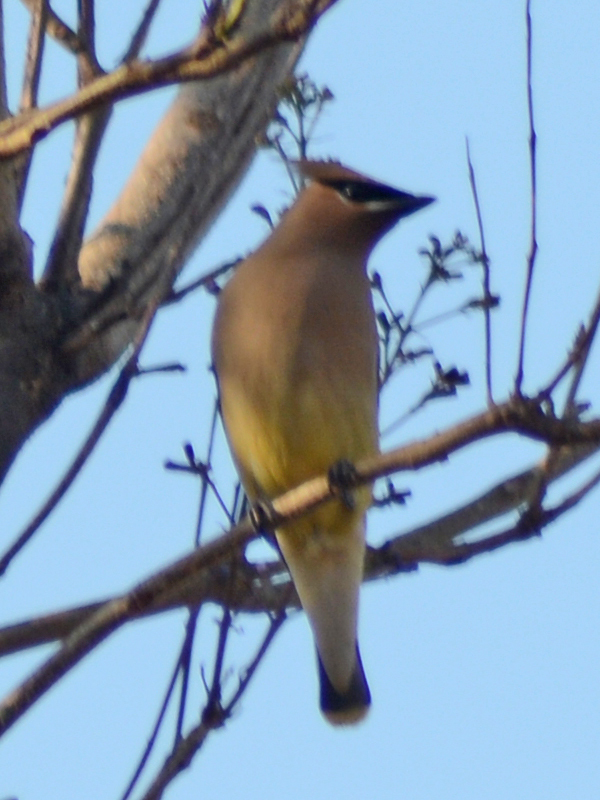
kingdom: Animalia
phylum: Chordata
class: Aves
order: Passeriformes
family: Bombycillidae
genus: Bombycilla
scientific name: Bombycilla cedrorum
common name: Cedar waxwing
